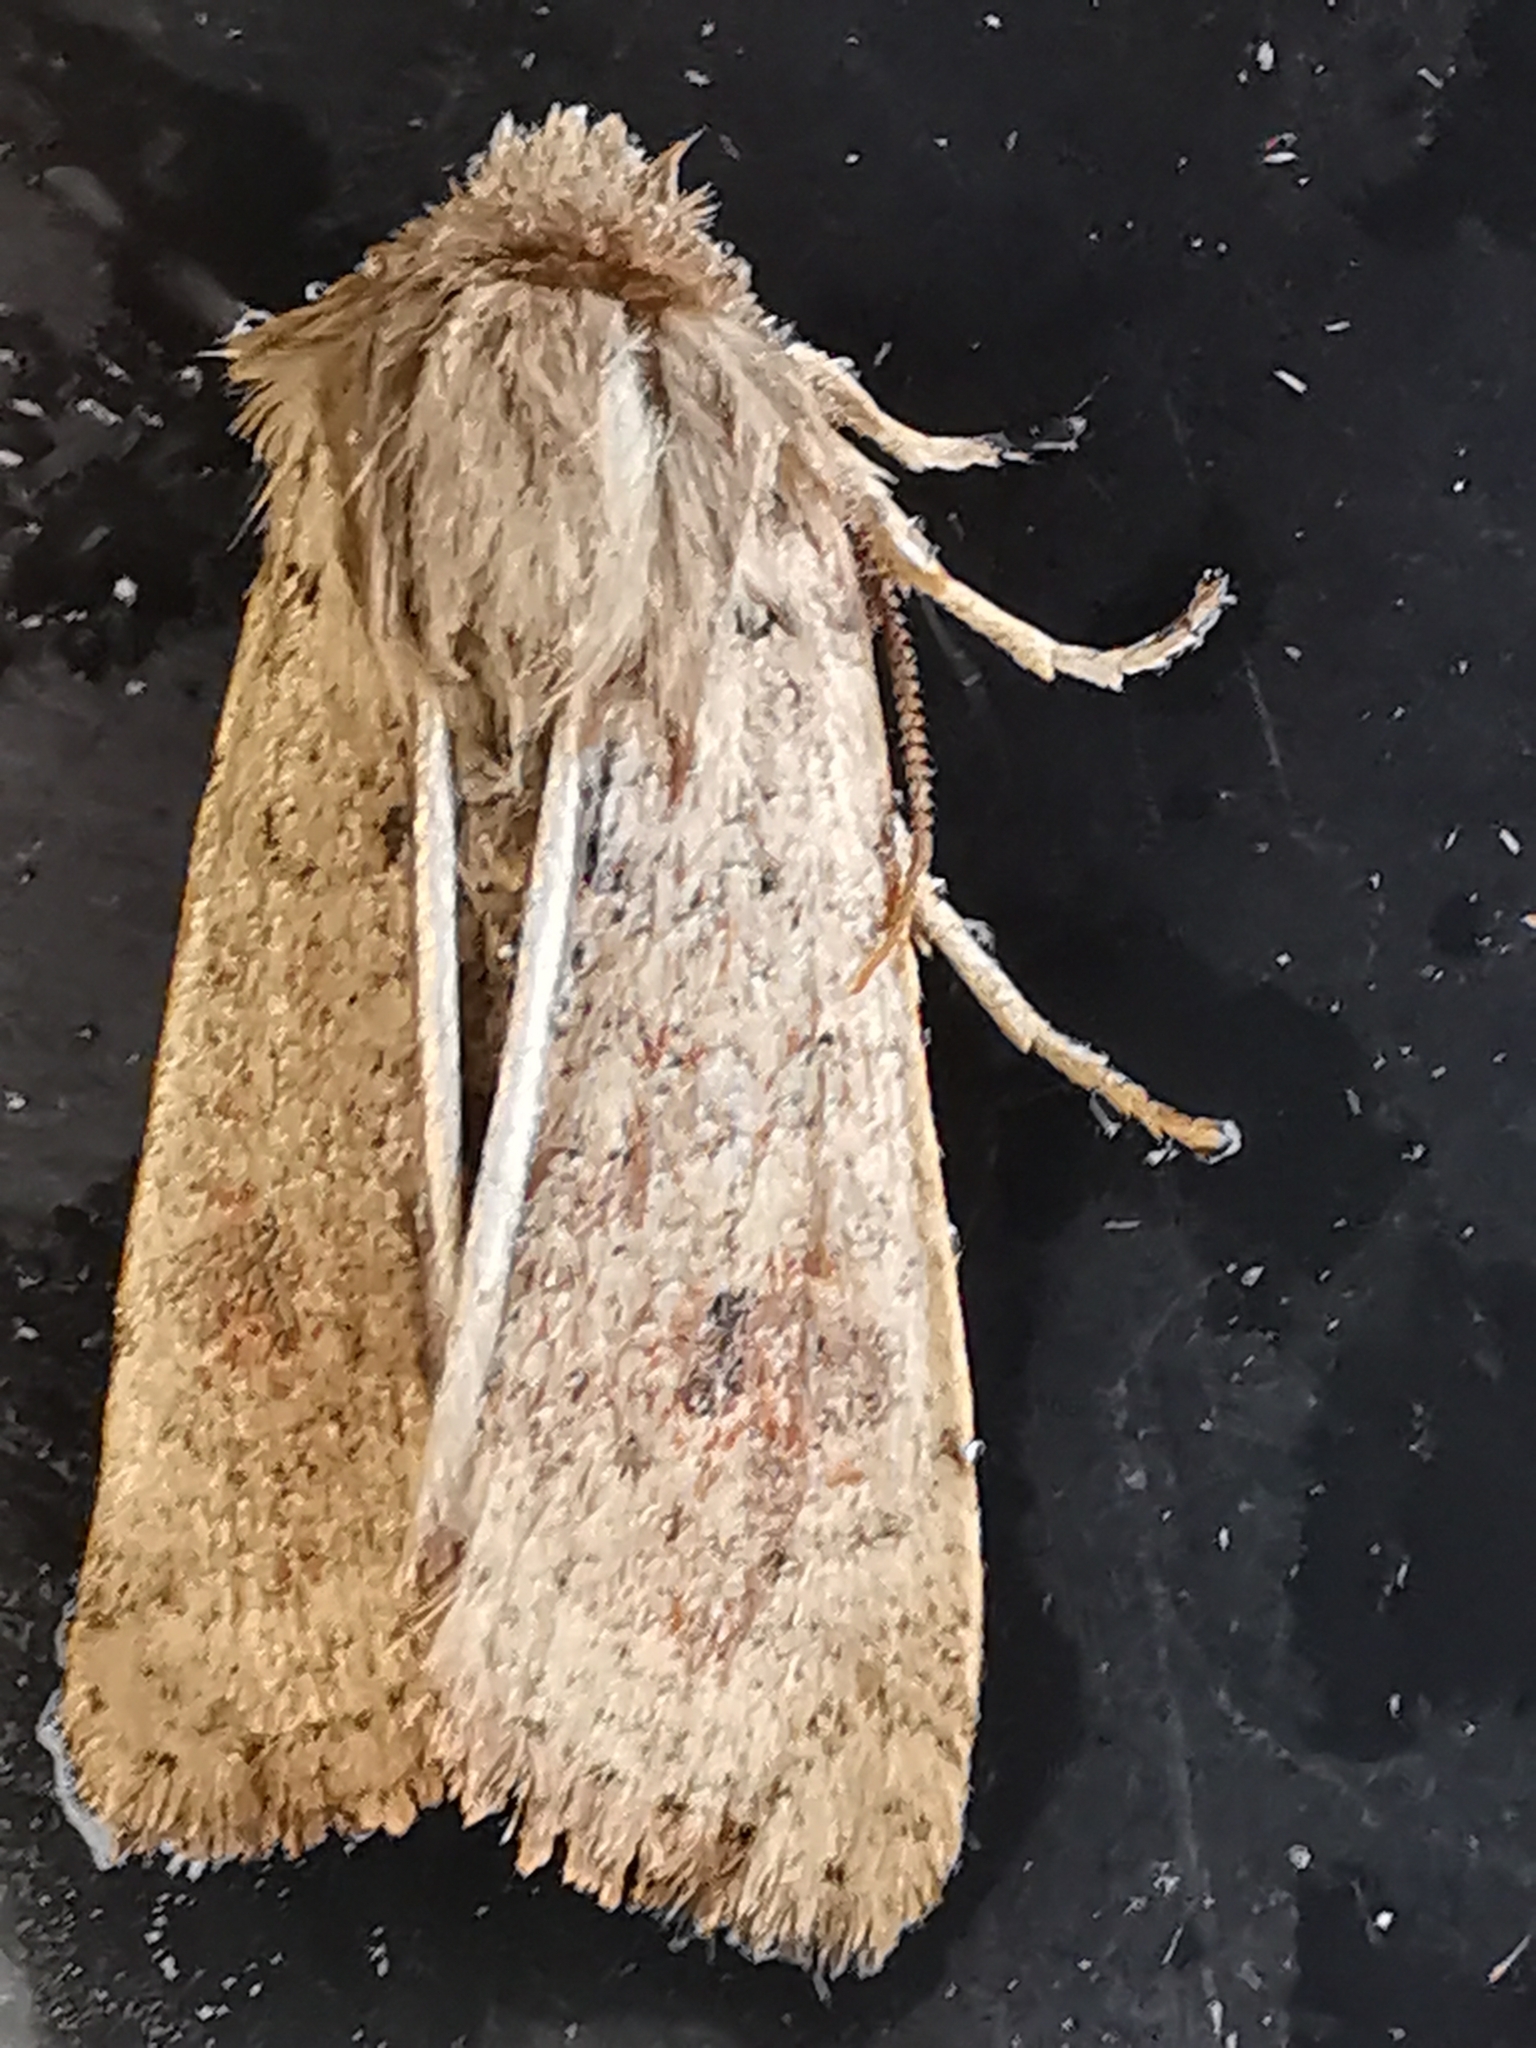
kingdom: Animalia
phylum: Arthropoda
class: Insecta
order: Lepidoptera
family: Noctuidae
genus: Orthosia
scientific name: Orthosia cruda
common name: Small quaker
